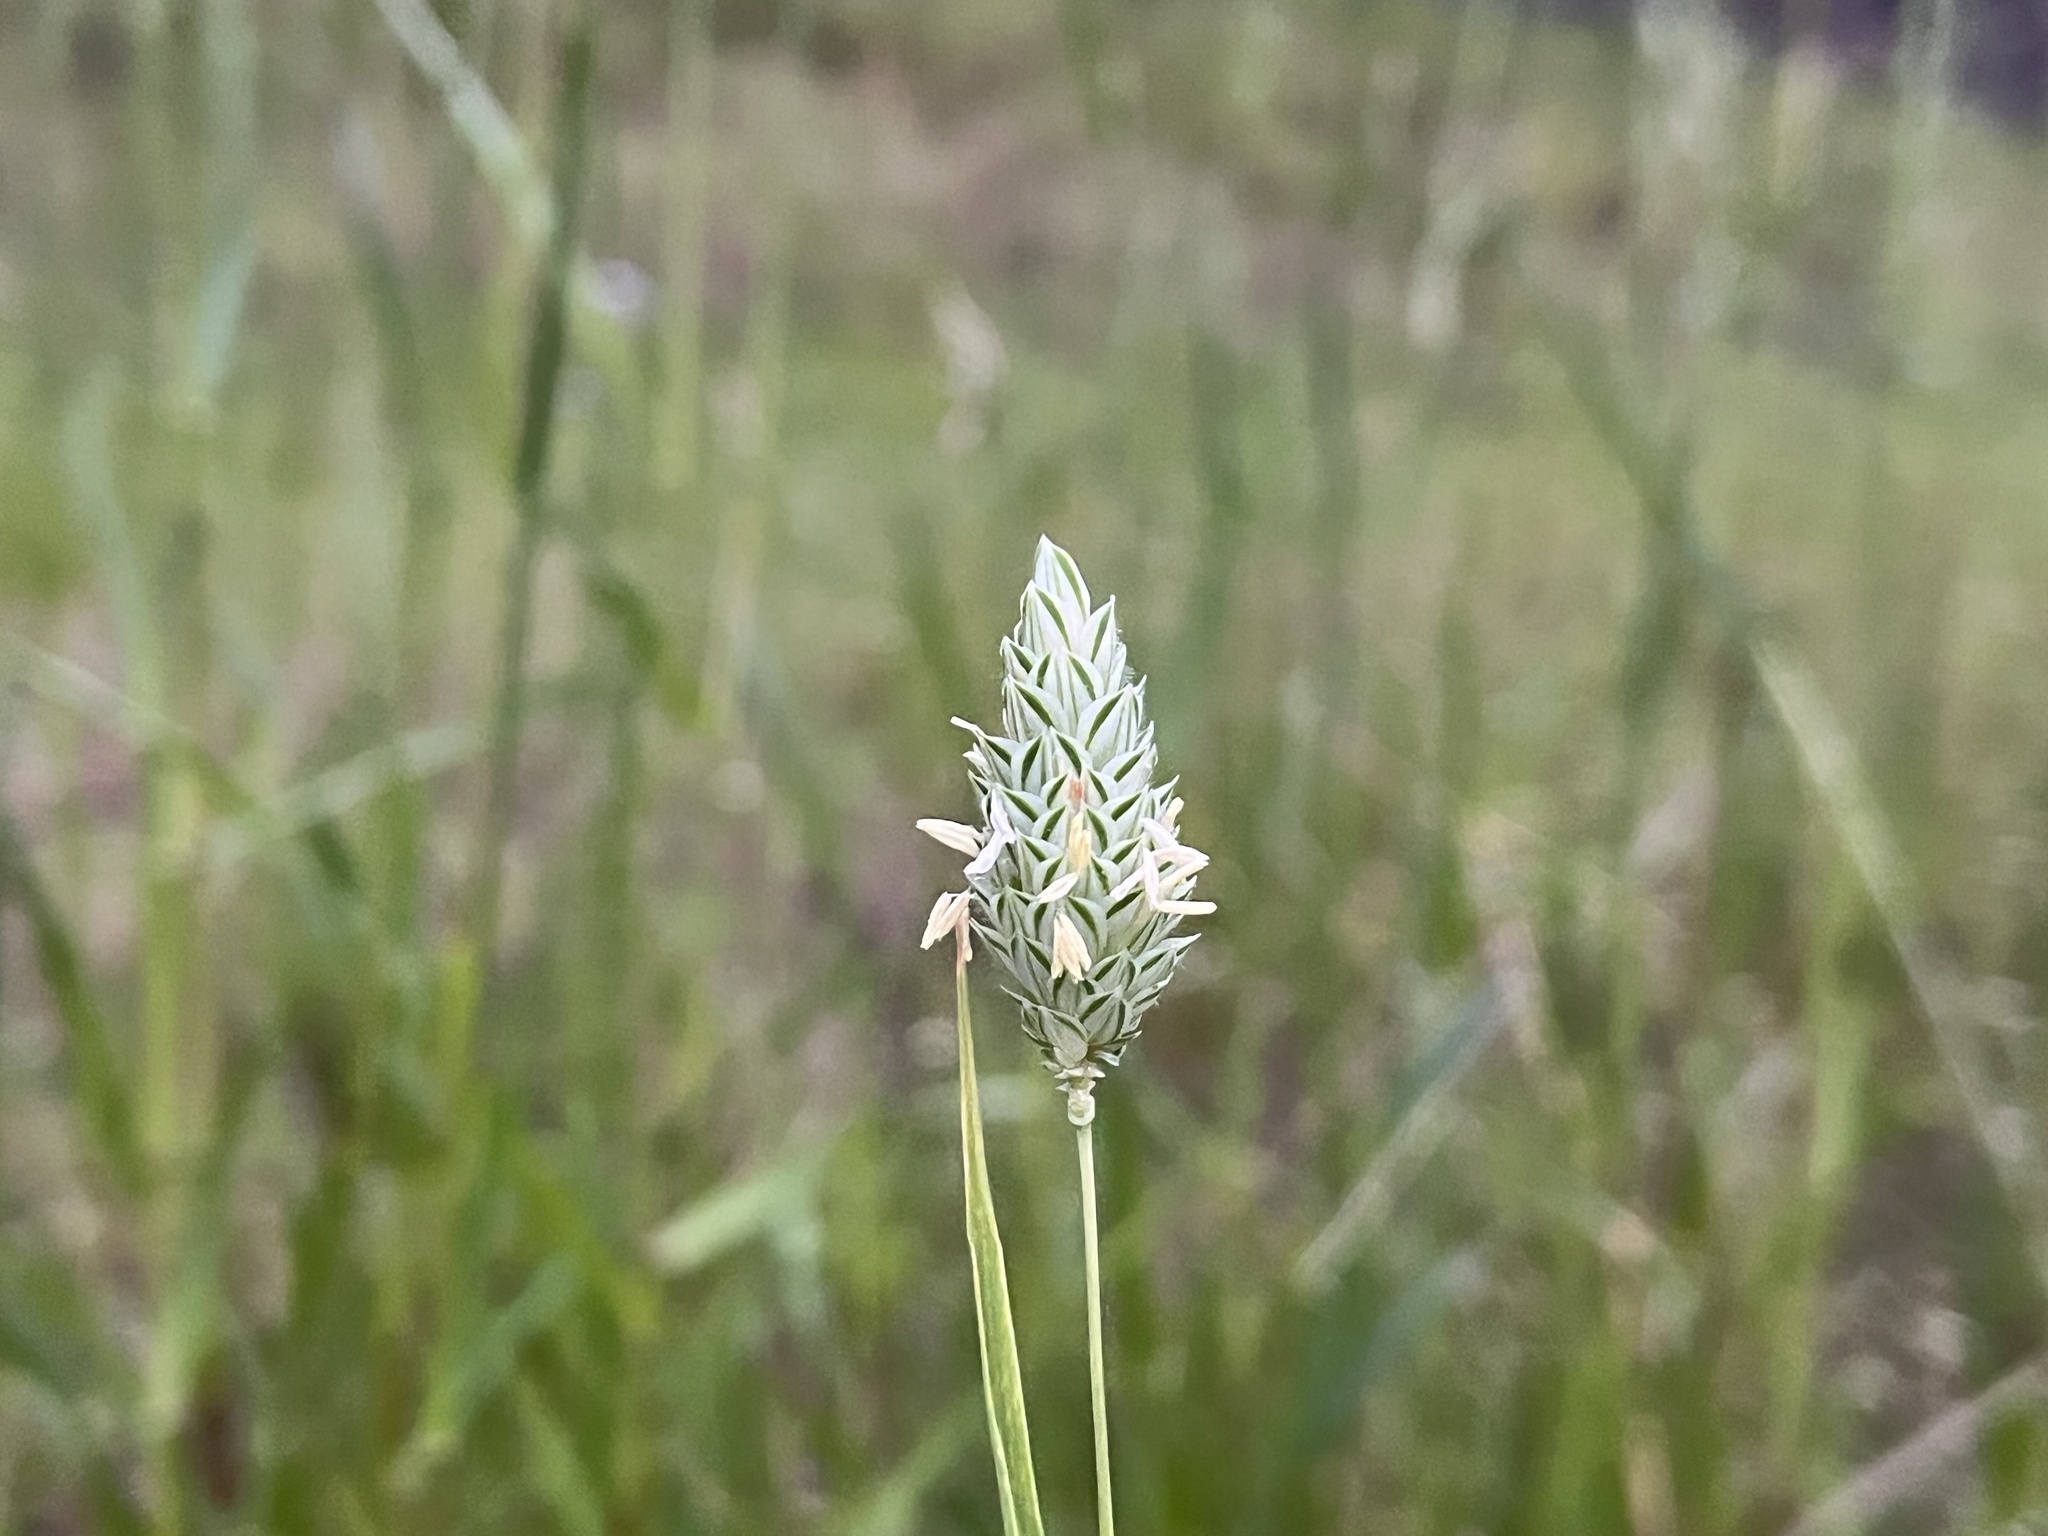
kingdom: Plantae
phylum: Tracheophyta
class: Liliopsida
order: Poales
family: Poaceae
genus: Phalaris
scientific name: Phalaris canariensis
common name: Annual canarygrass
